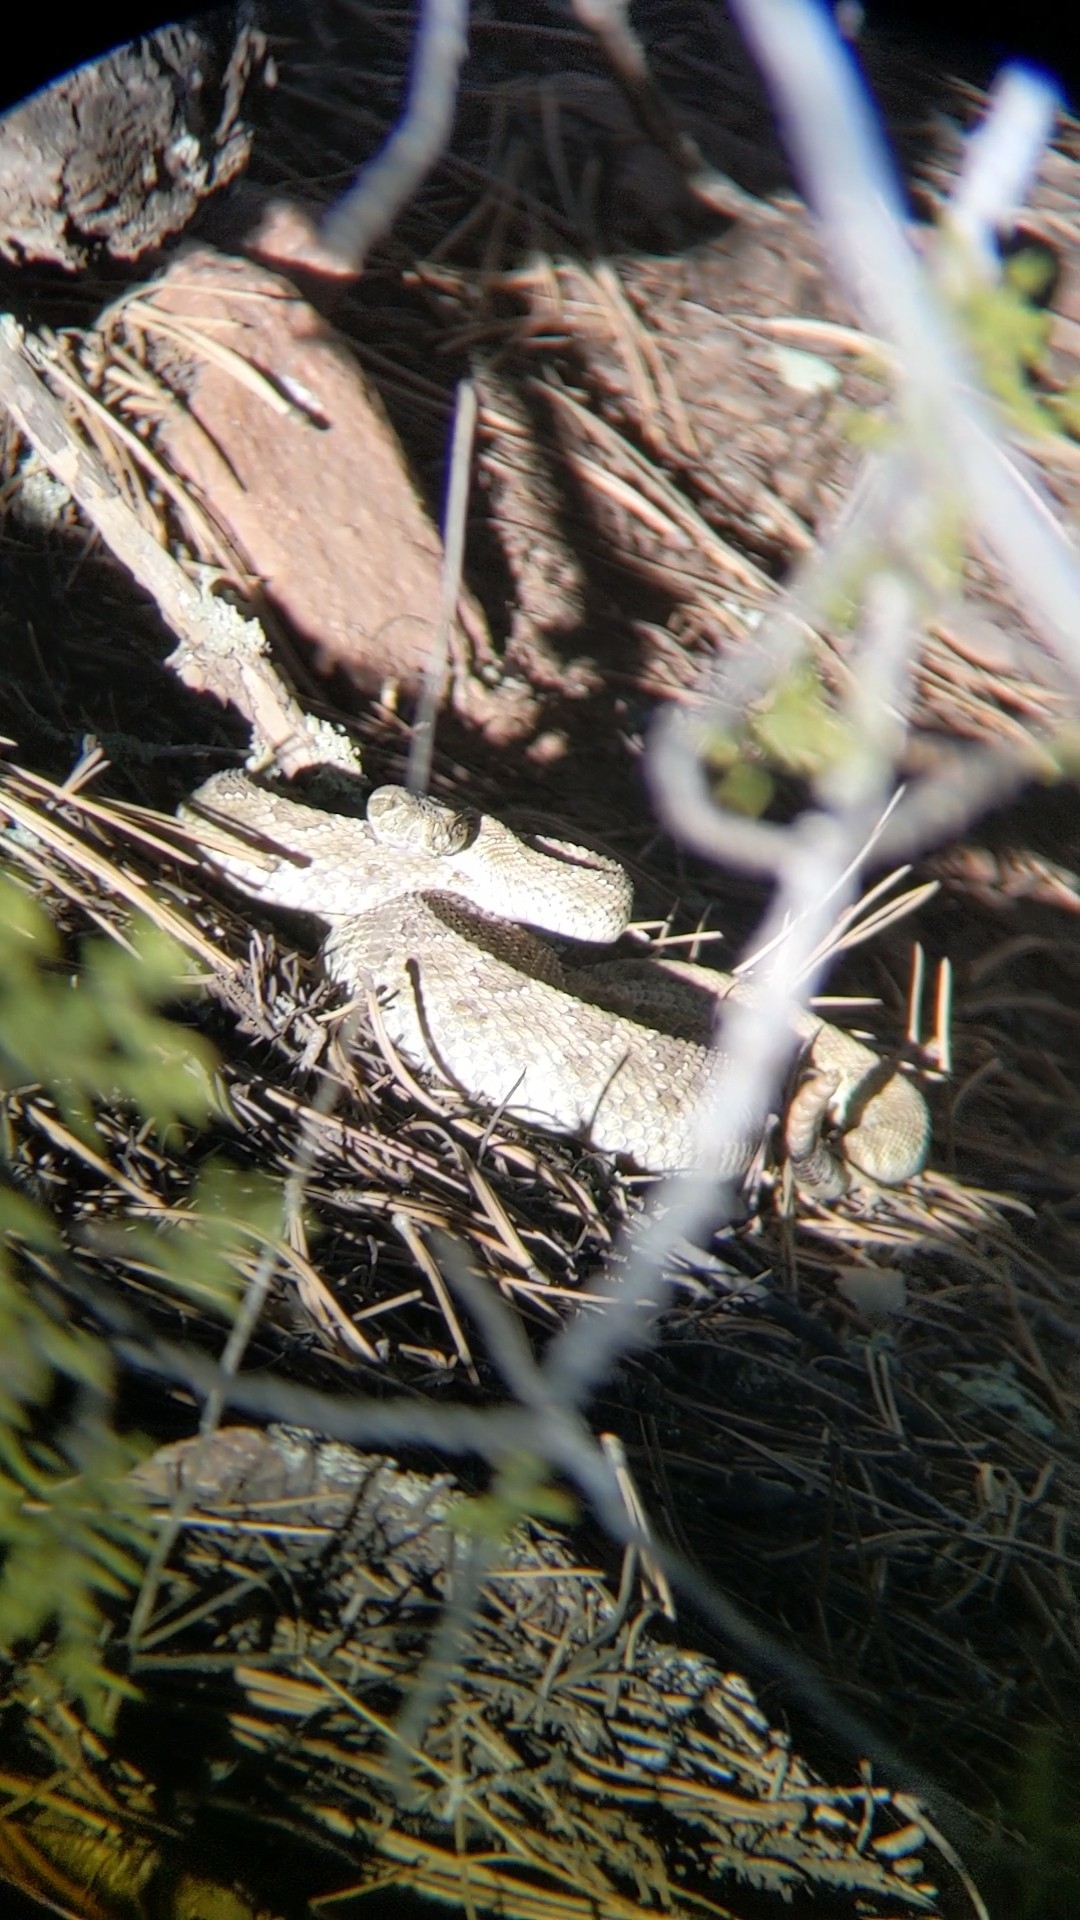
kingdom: Animalia
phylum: Chordata
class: Squamata
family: Viperidae
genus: Crotalus
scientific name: Crotalus viridis
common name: Prairie rattlesnake
